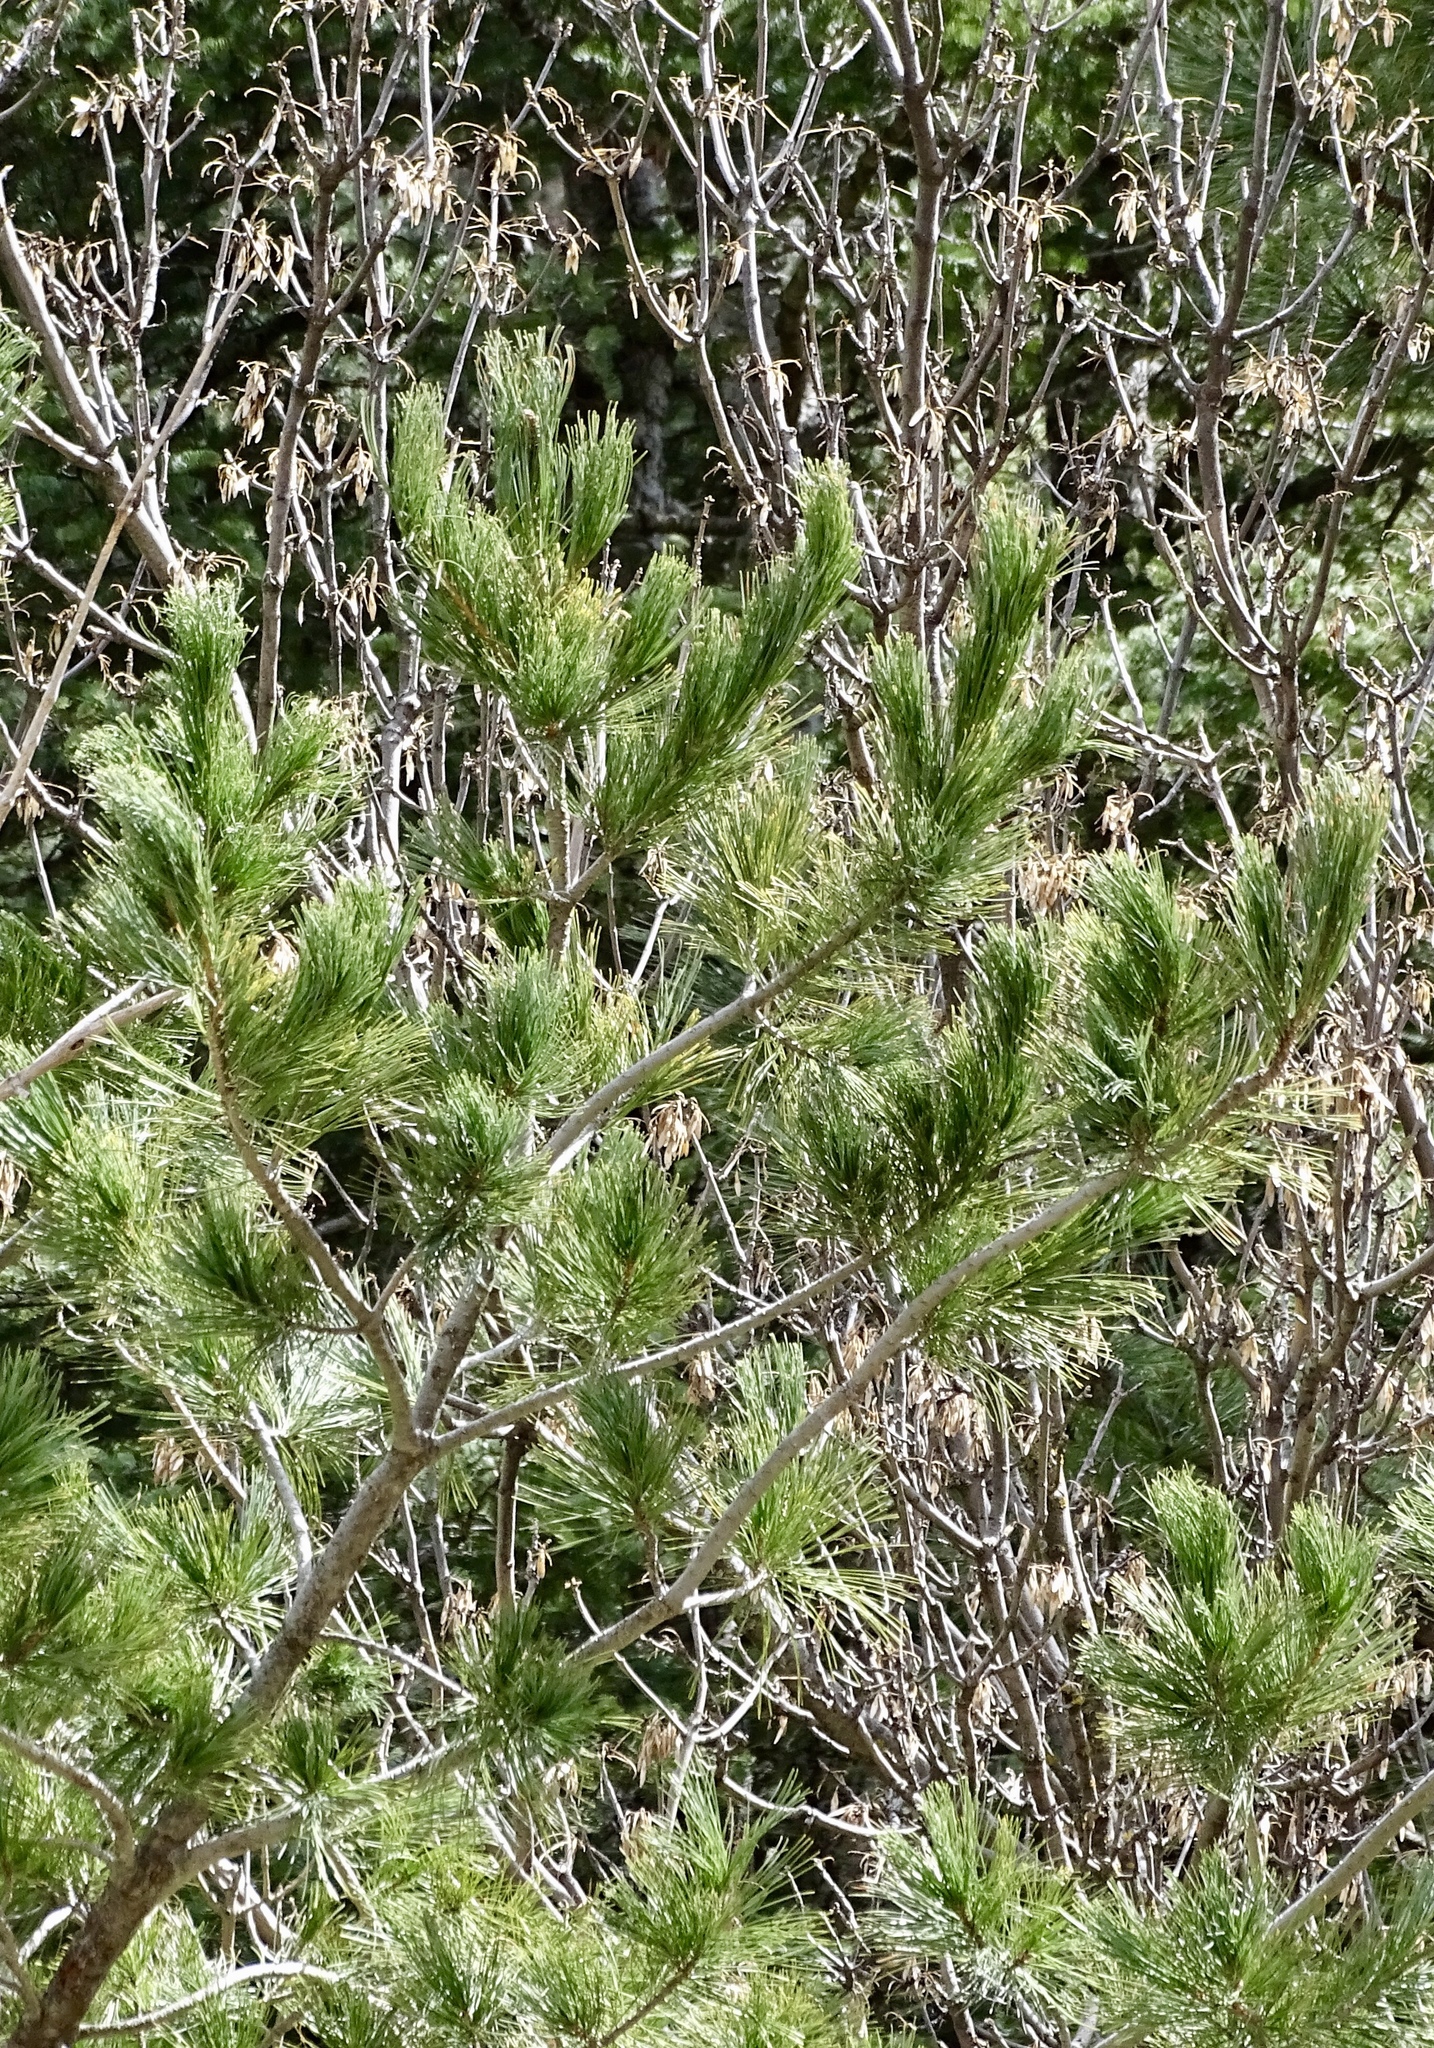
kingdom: Plantae
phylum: Tracheophyta
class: Pinopsida
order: Pinales
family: Pinaceae
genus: Pinus
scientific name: Pinus strobiformis
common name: Southwestern white pine
